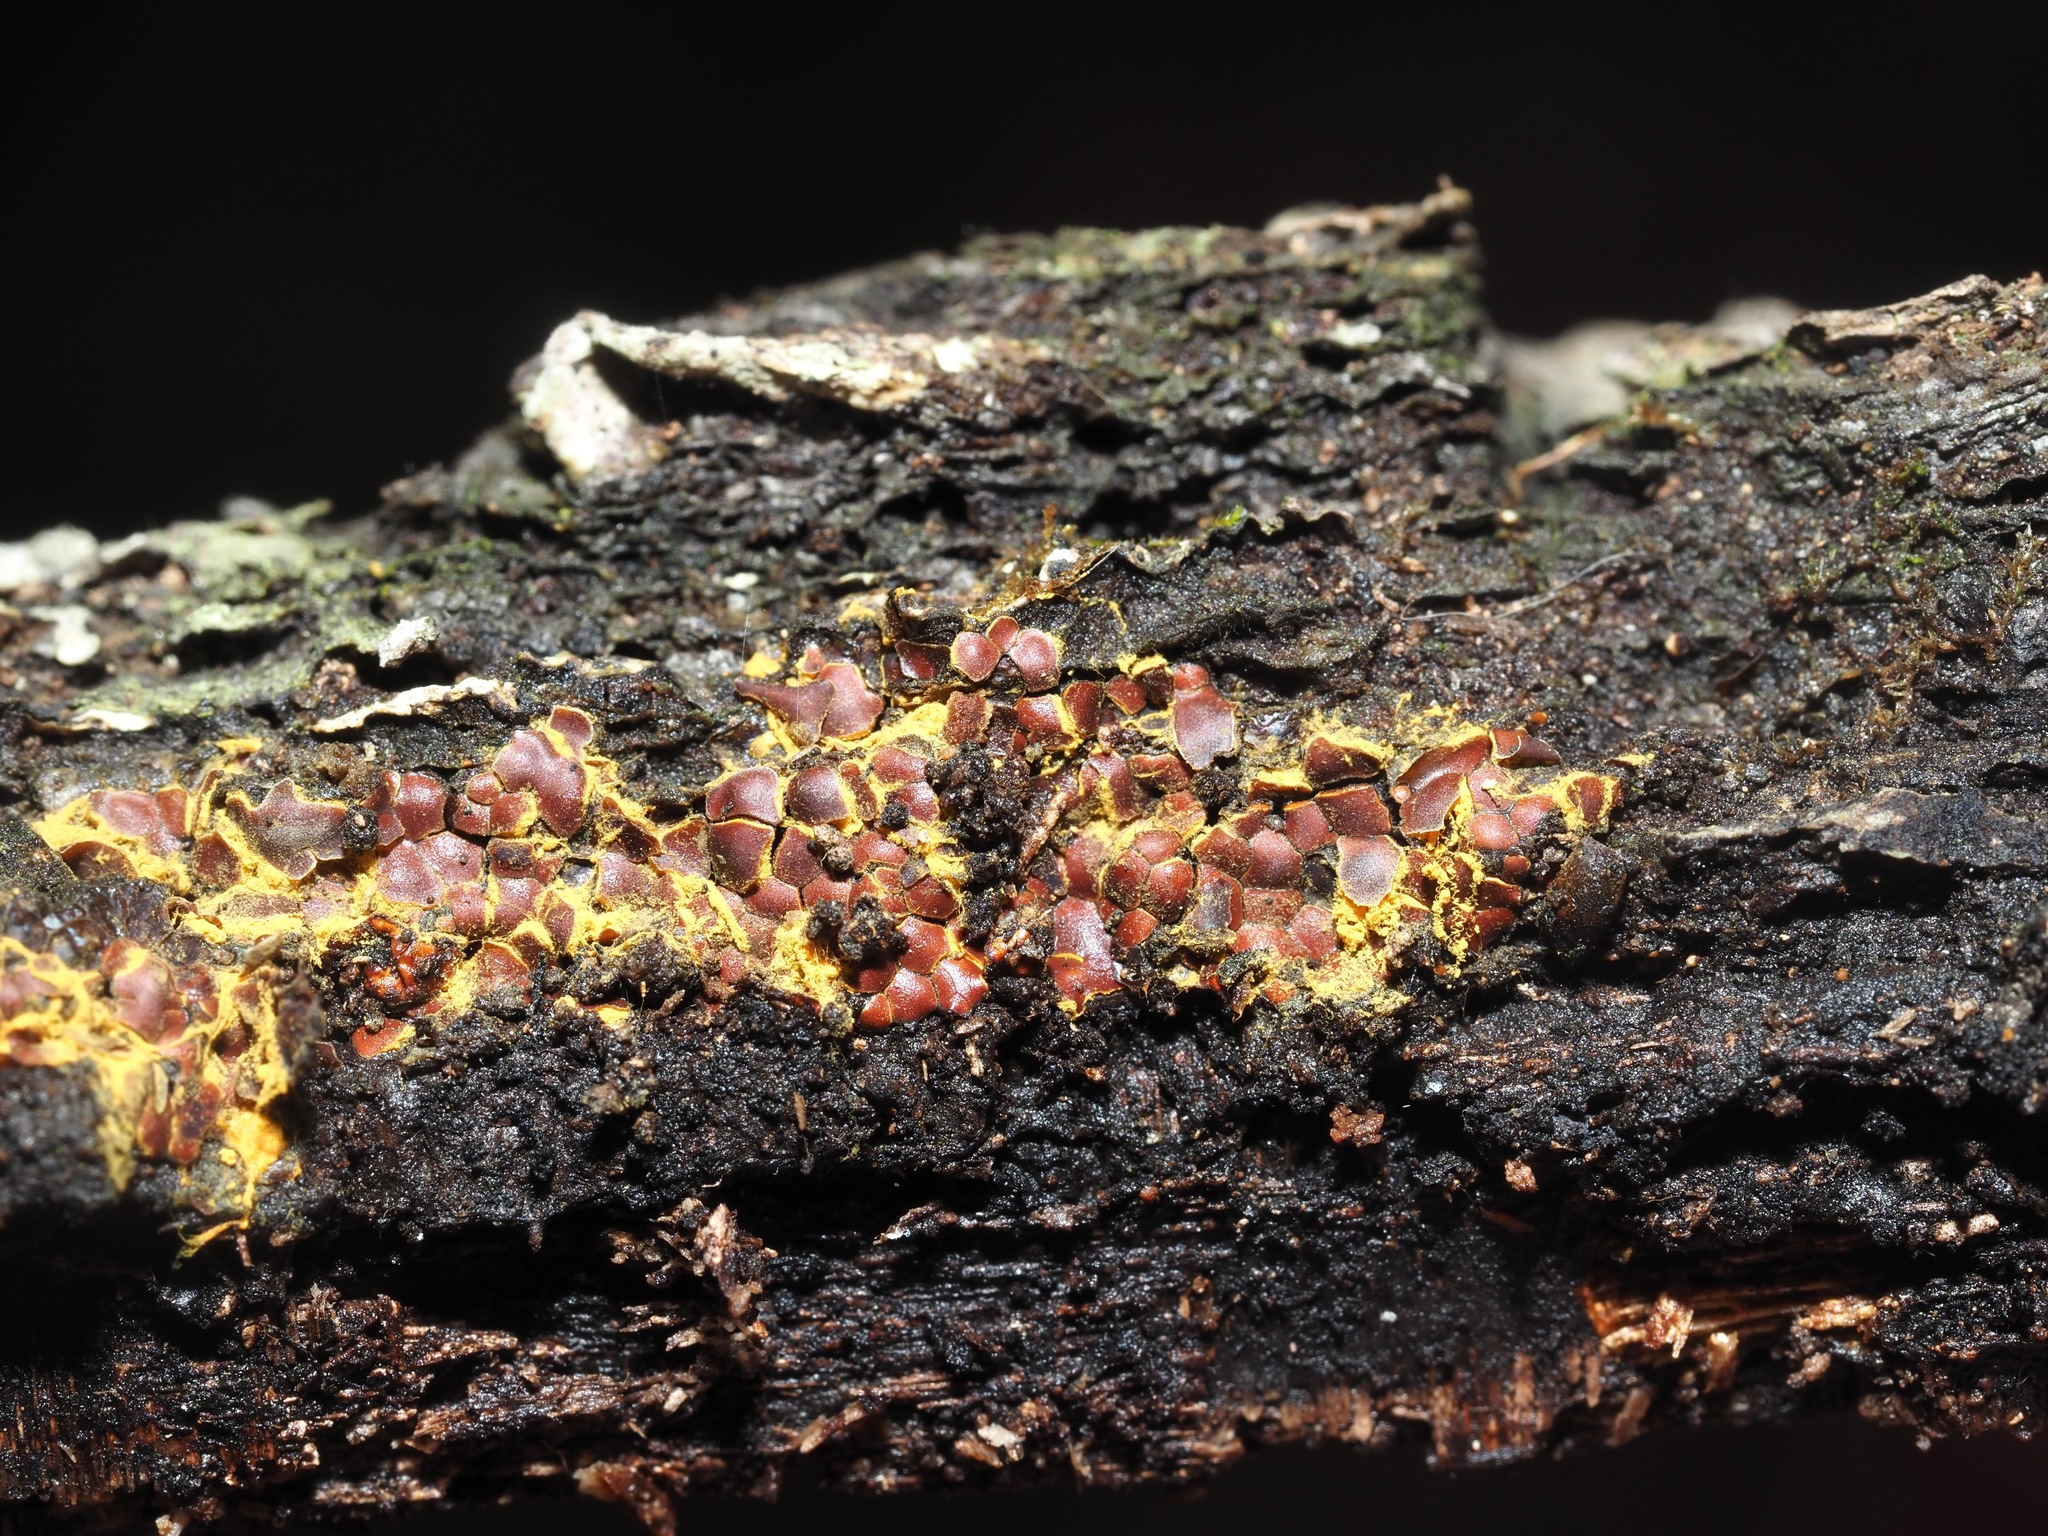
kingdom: Protozoa
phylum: Mycetozoa
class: Myxomycetes
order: Trichiales
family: Trichiaceae
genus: Perichaena
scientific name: Perichaena depressa
